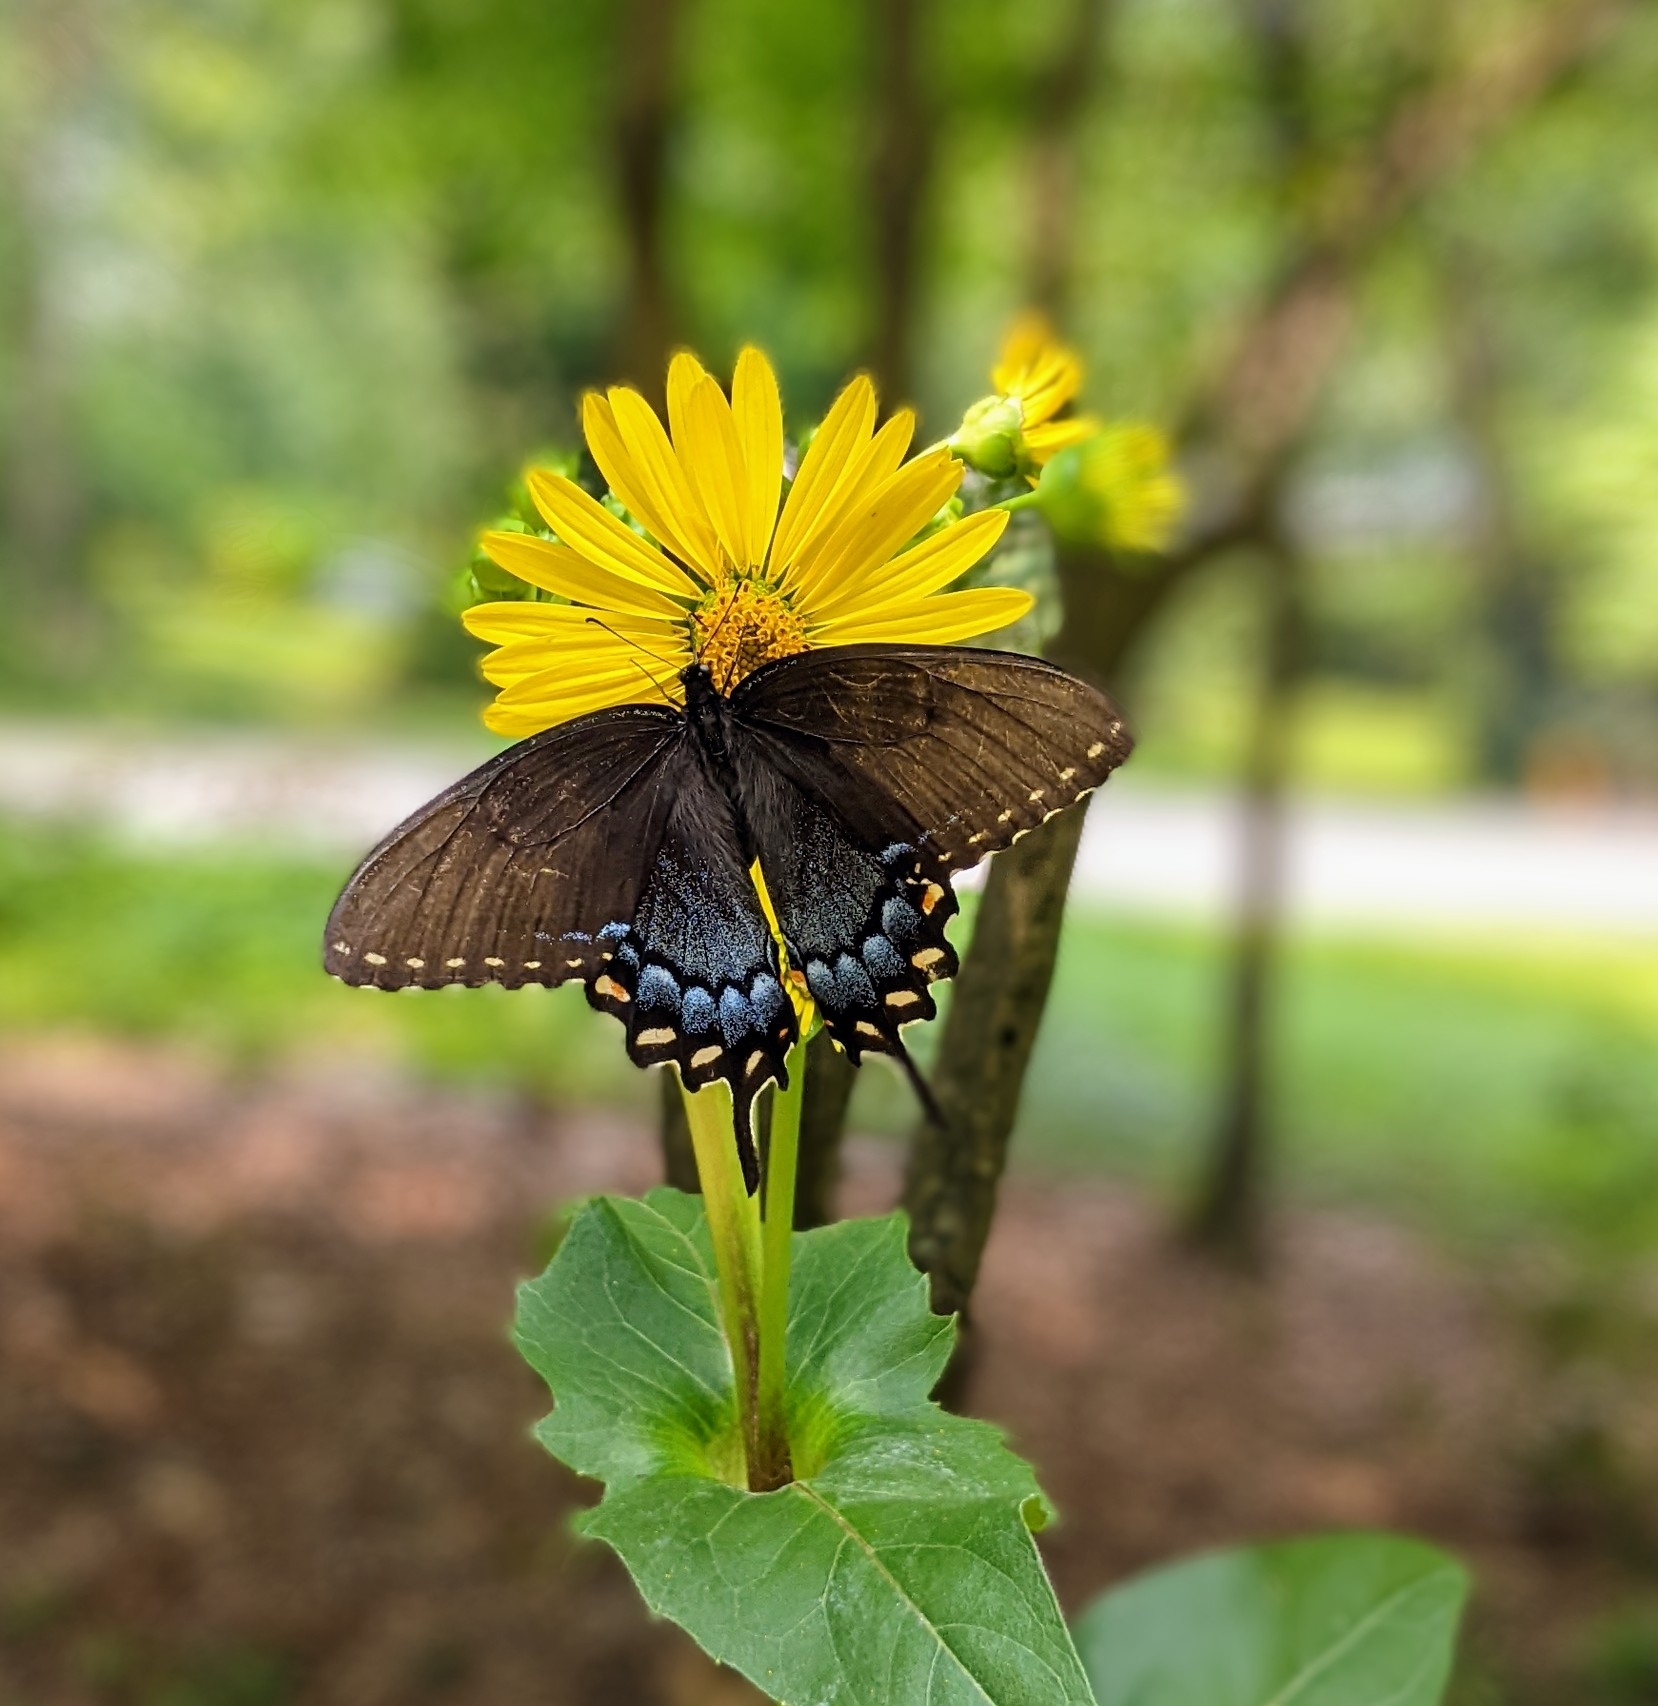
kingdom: Animalia
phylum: Arthropoda
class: Insecta
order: Lepidoptera
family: Papilionidae
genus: Papilio
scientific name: Papilio glaucus
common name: Tiger swallowtail
